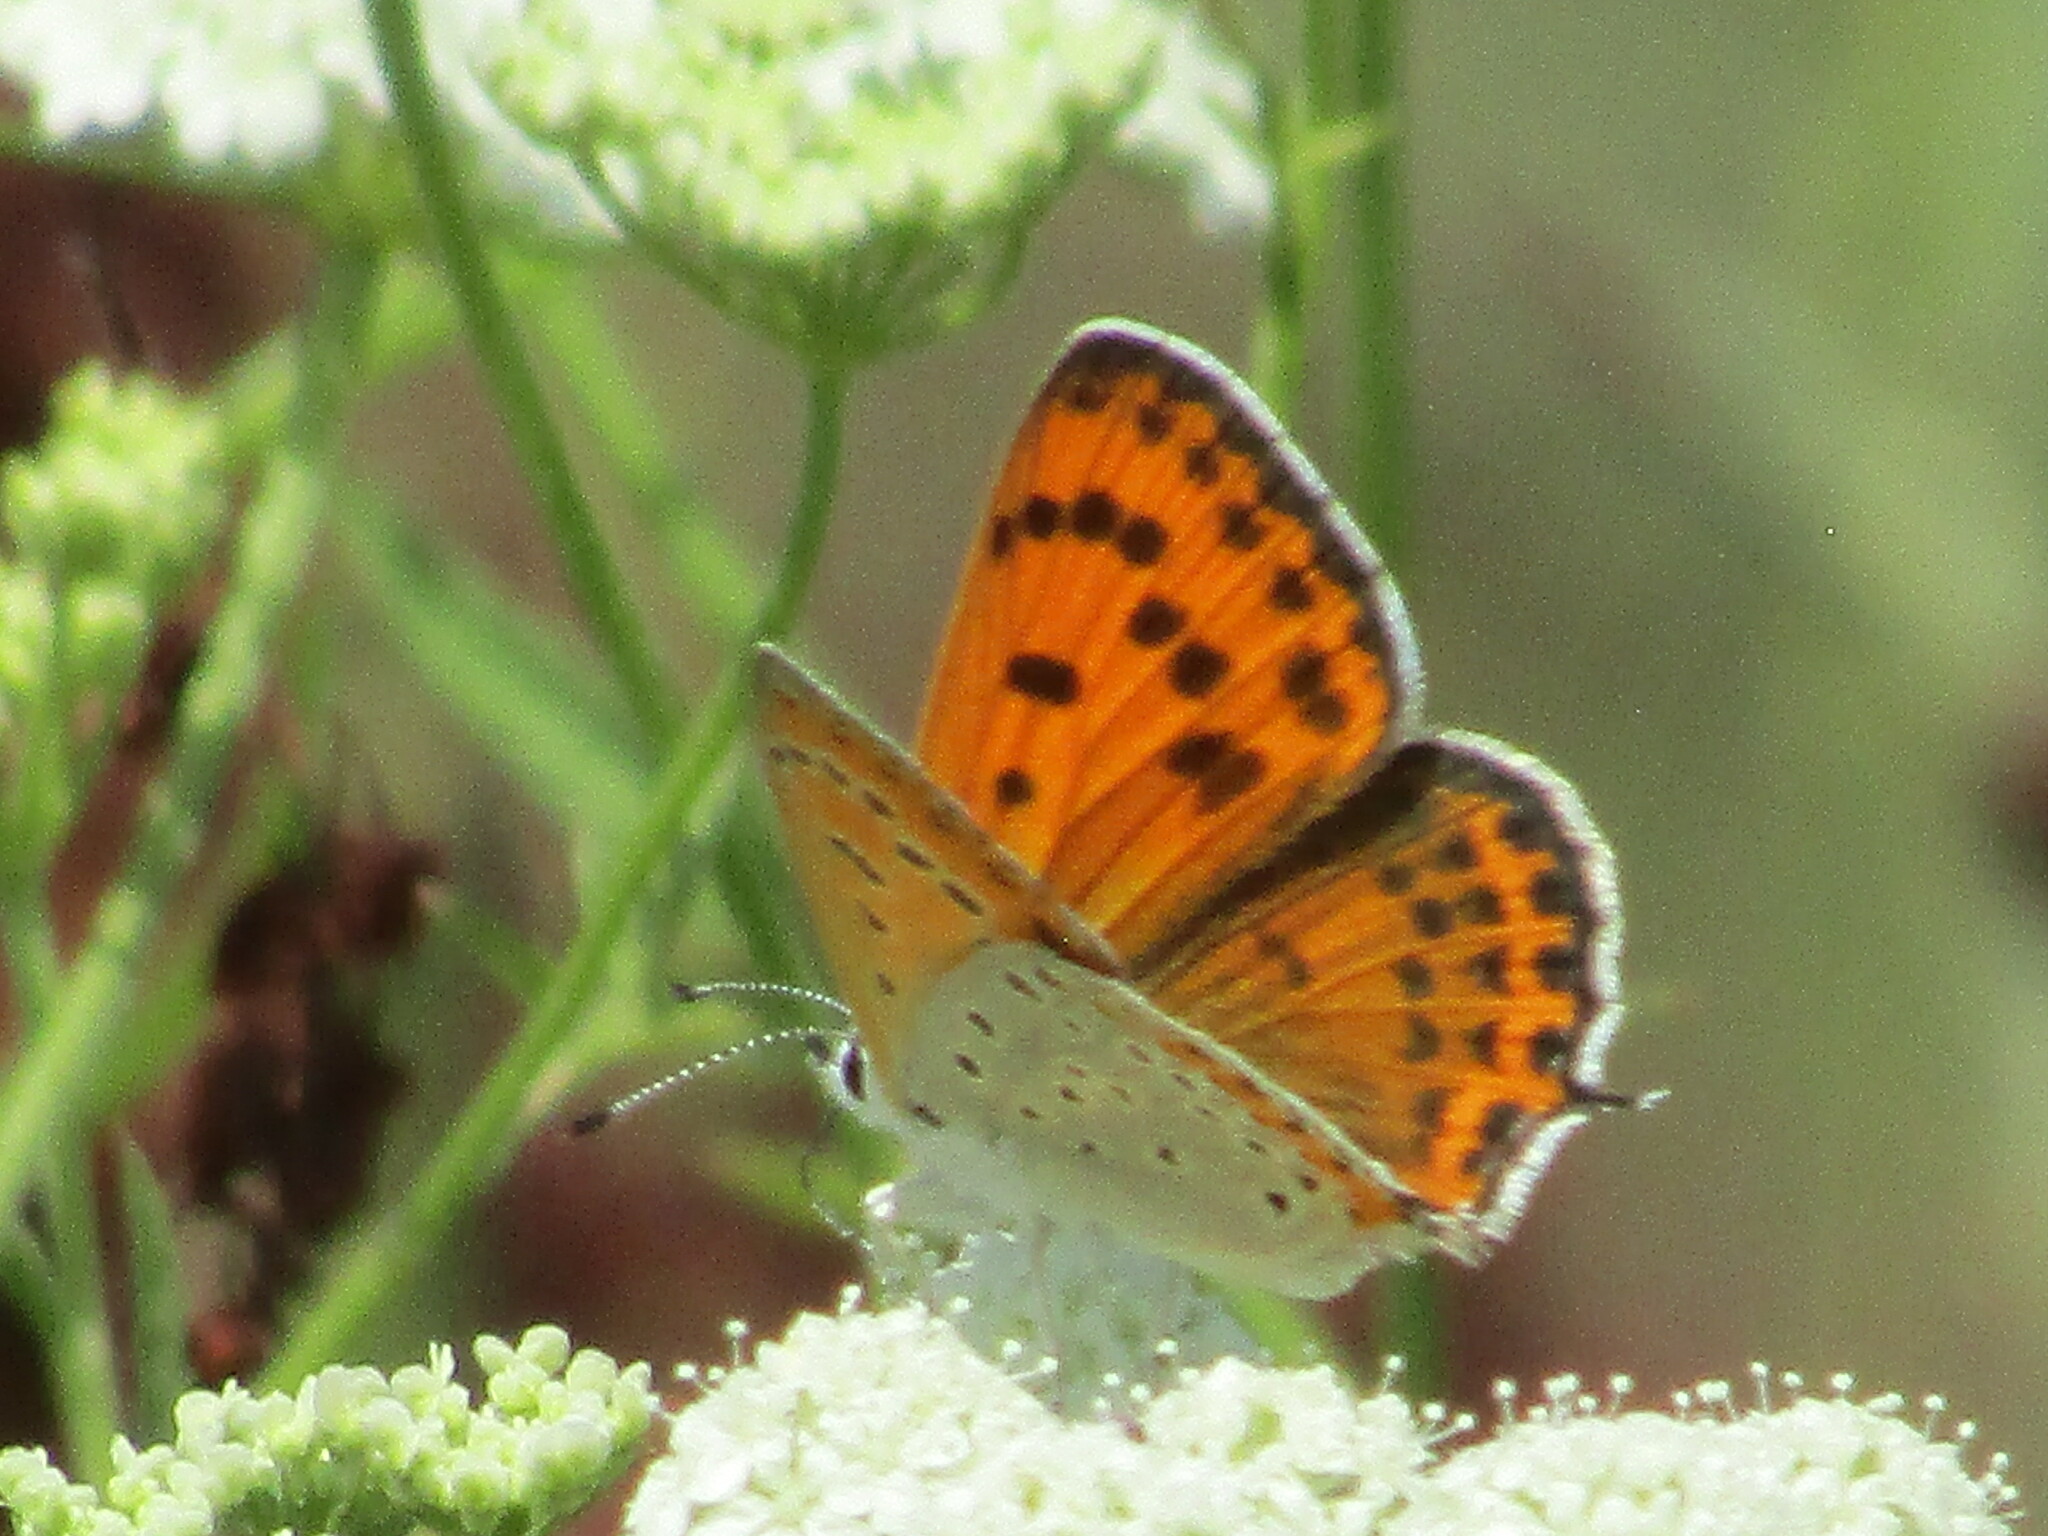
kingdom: Animalia
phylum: Arthropoda
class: Insecta
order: Lepidoptera
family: Lycaenidae
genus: Thersamonia
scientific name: Thersamonia thersamon
